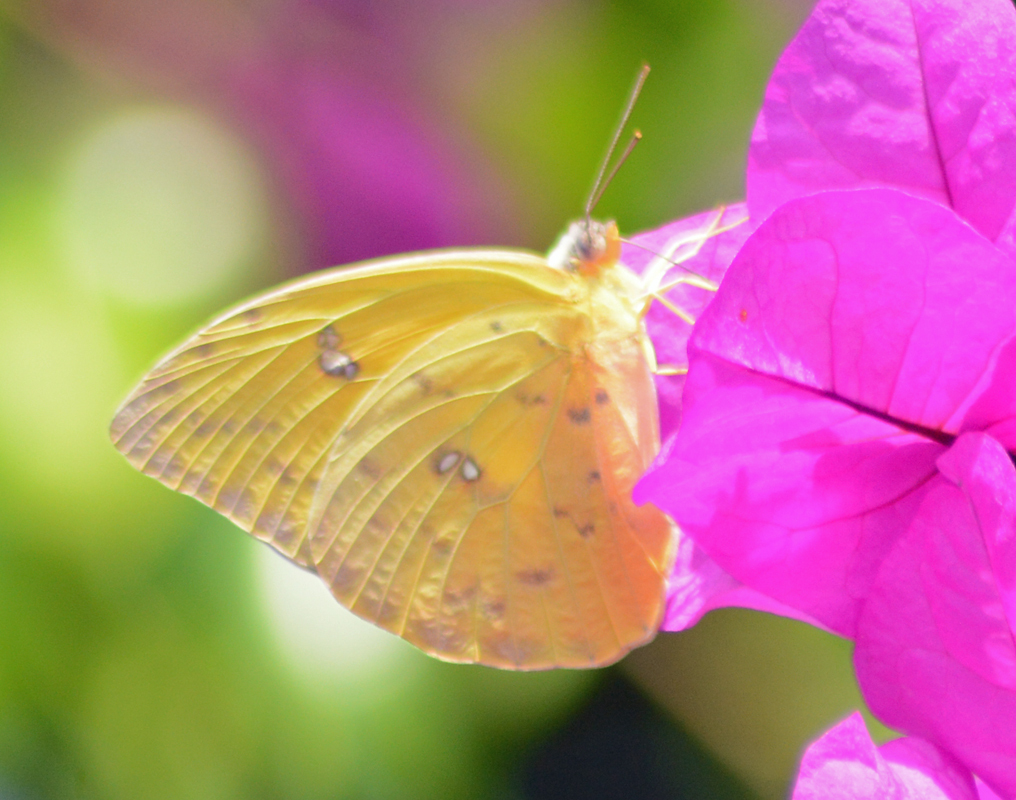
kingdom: Animalia
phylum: Arthropoda
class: Insecta
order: Lepidoptera
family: Pieridae
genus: Phoebis
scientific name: Phoebis philea
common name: Orange-barred giant sulphur
